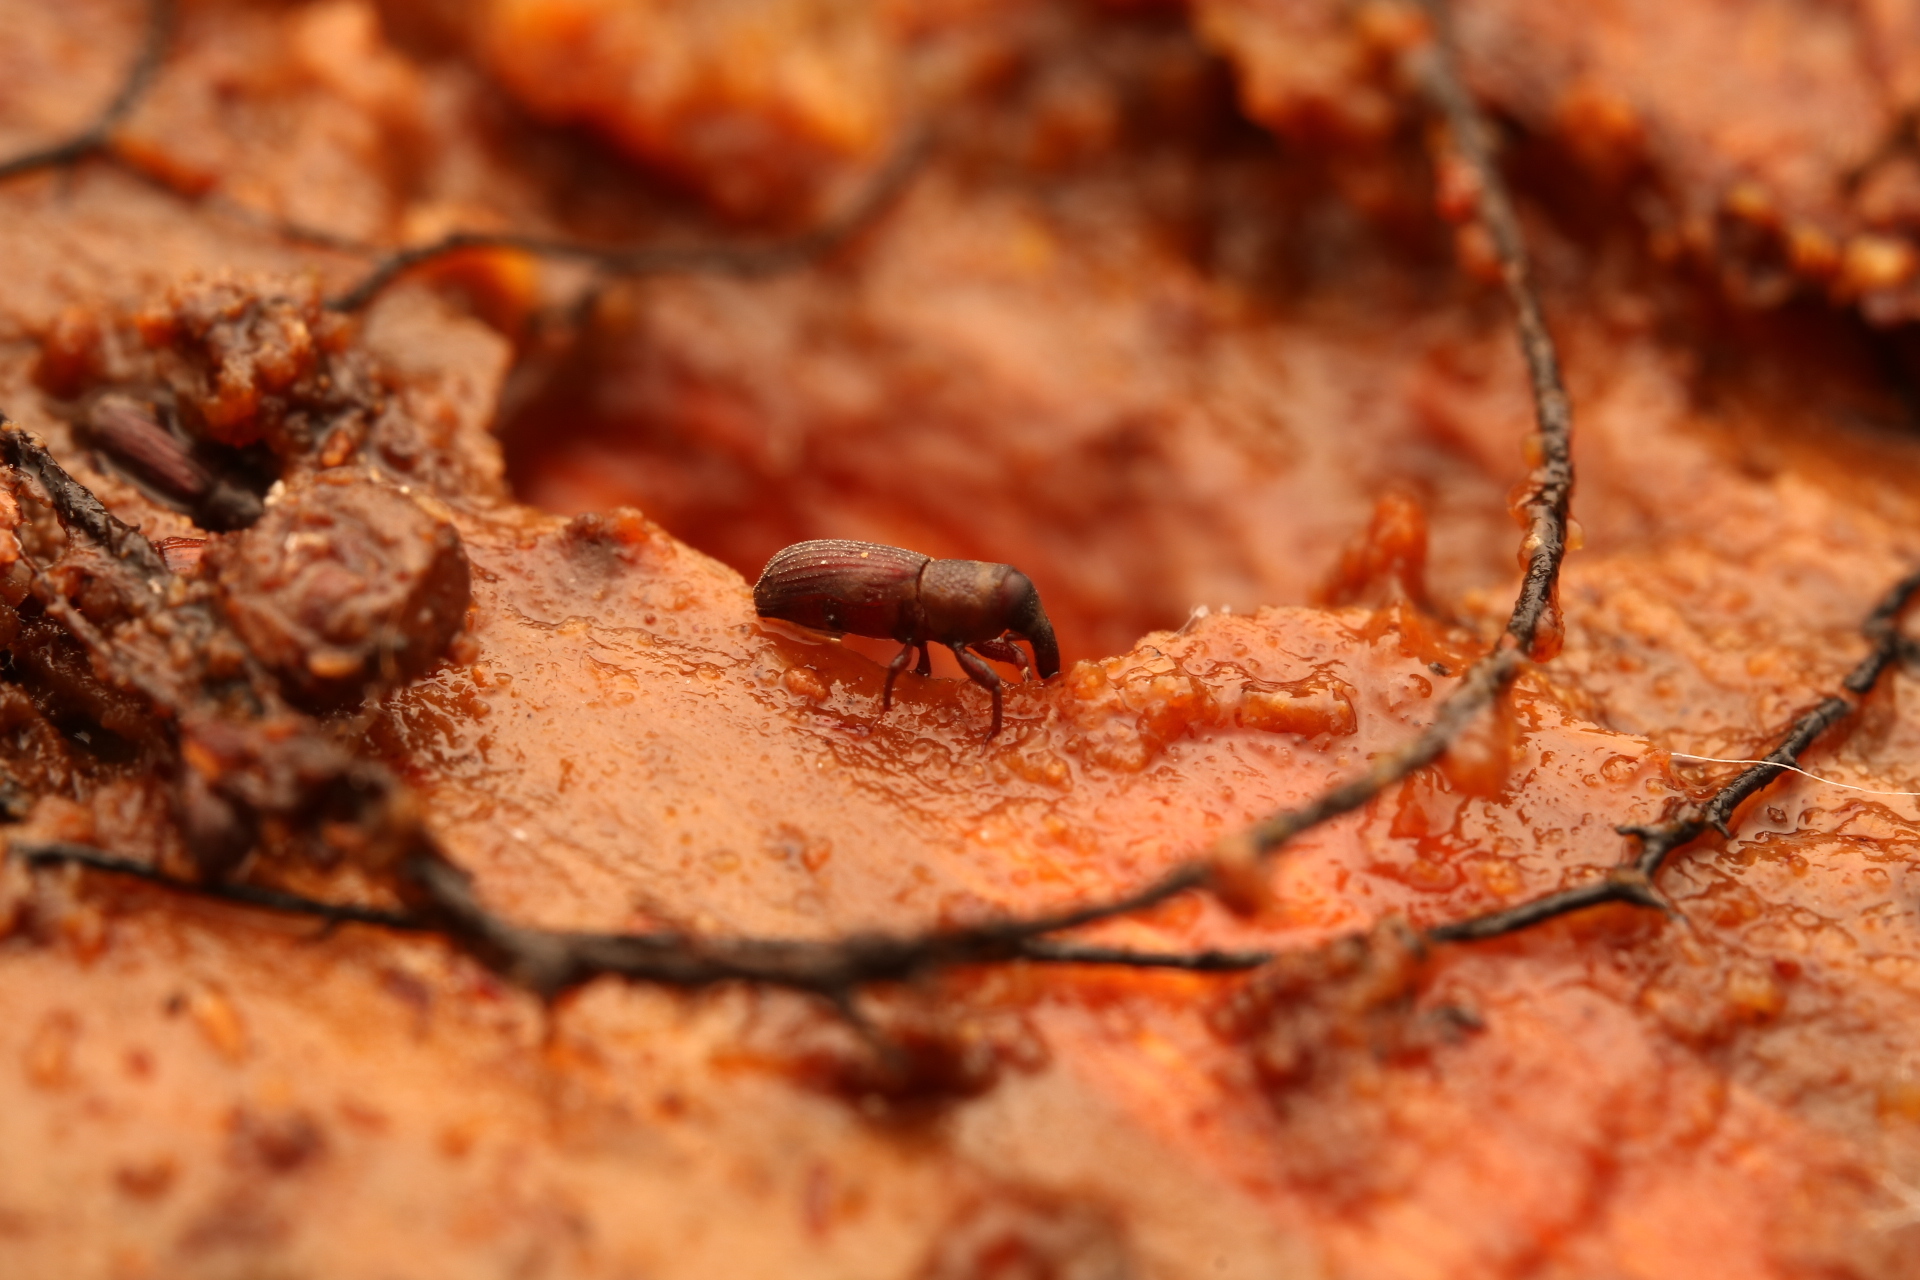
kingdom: Animalia
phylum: Arthropoda
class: Insecta
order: Coleoptera
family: Dryophthoridae
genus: Dryophthorus
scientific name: Dryophthorus americanus
